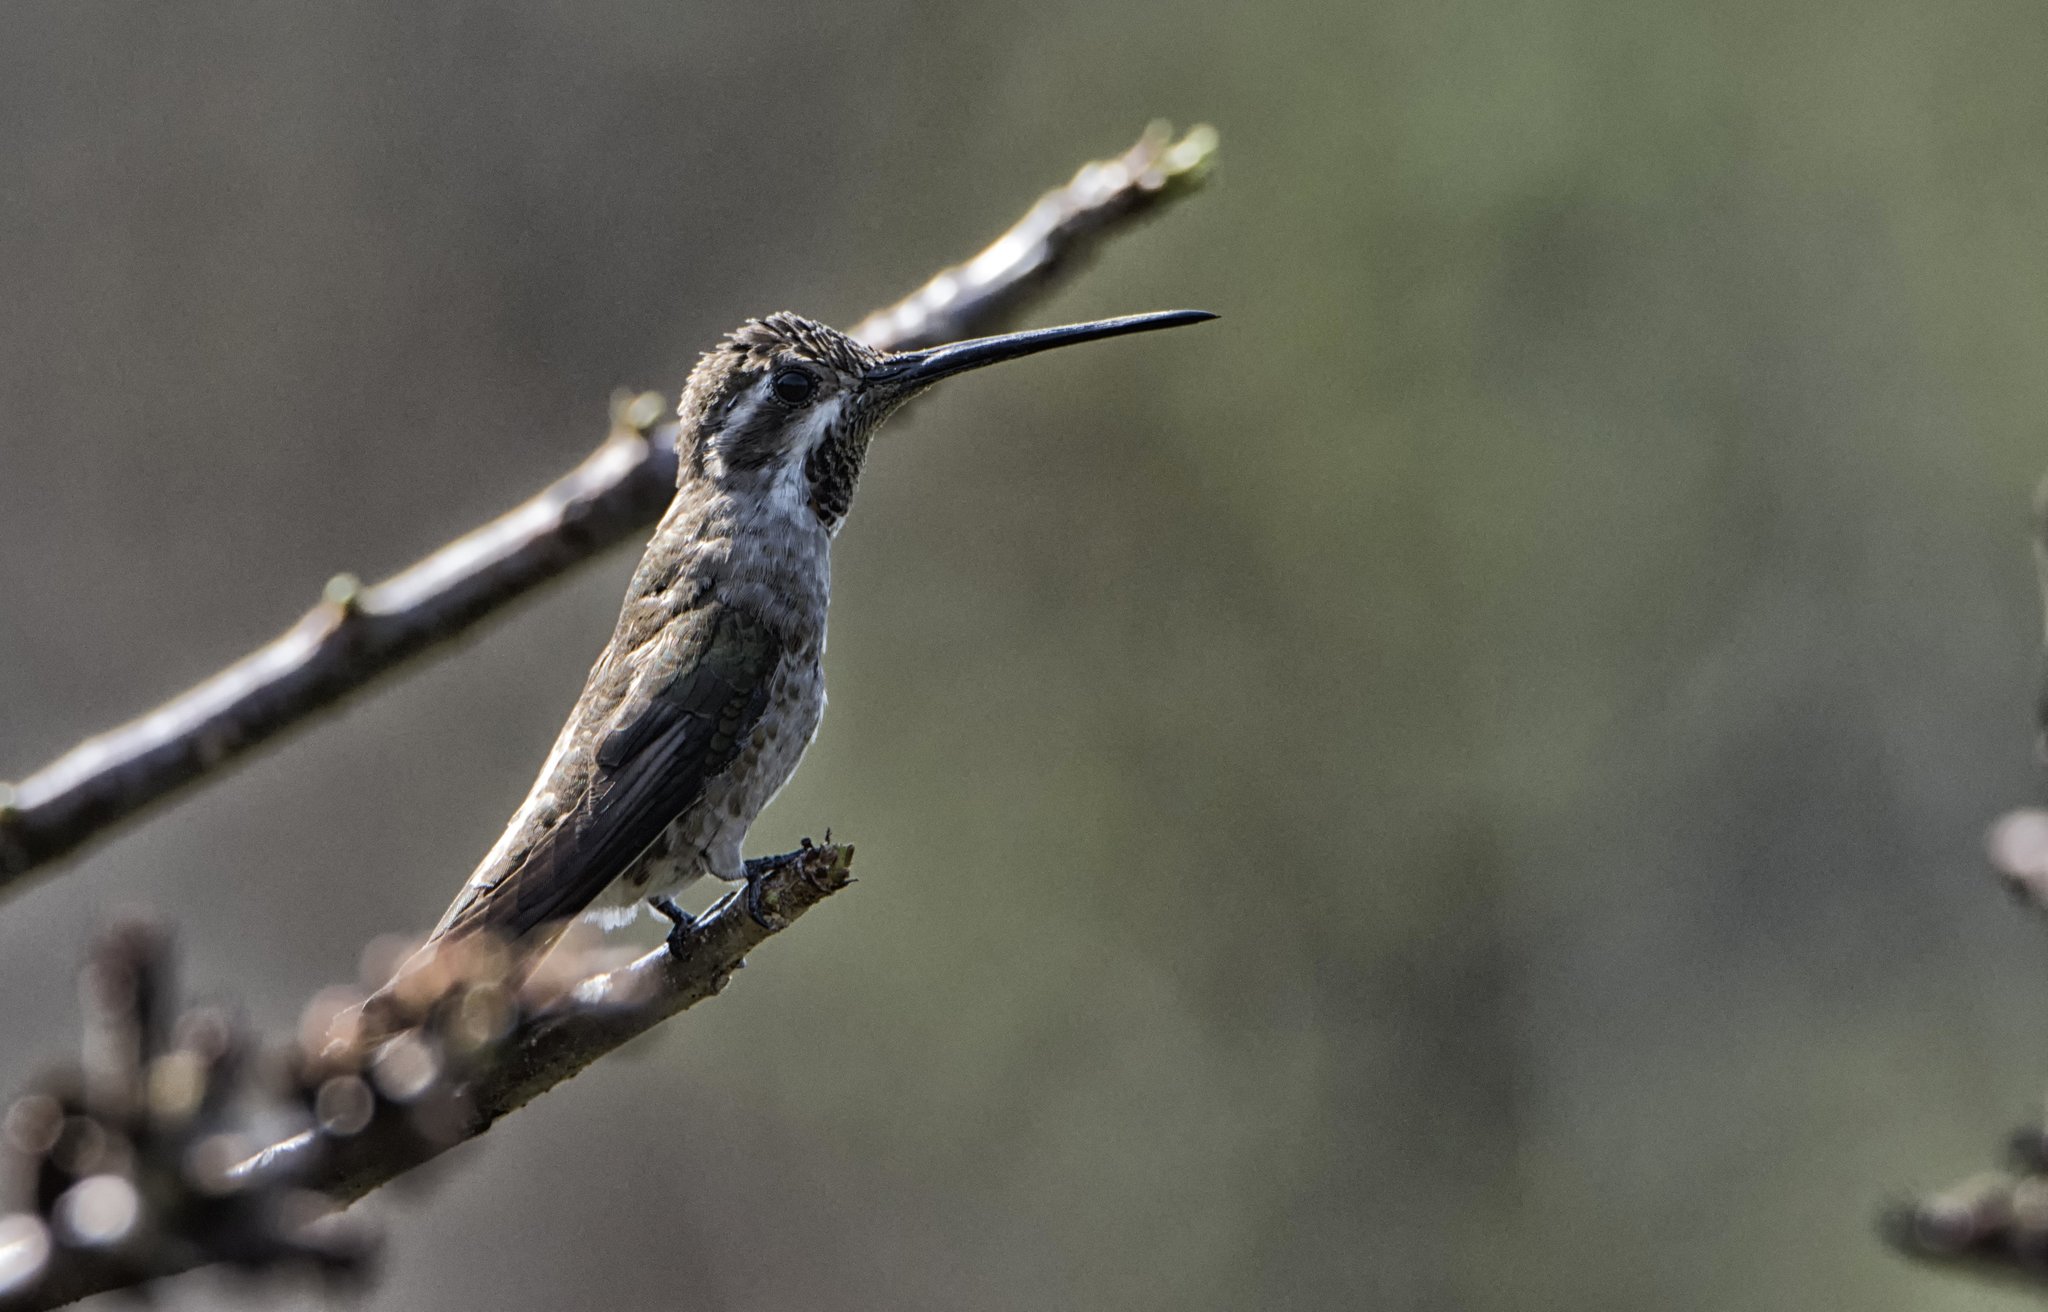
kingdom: Animalia
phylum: Chordata
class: Aves
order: Apodiformes
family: Trochilidae
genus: Heliomaster
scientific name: Heliomaster constantii
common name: Plain-capped starthroat
